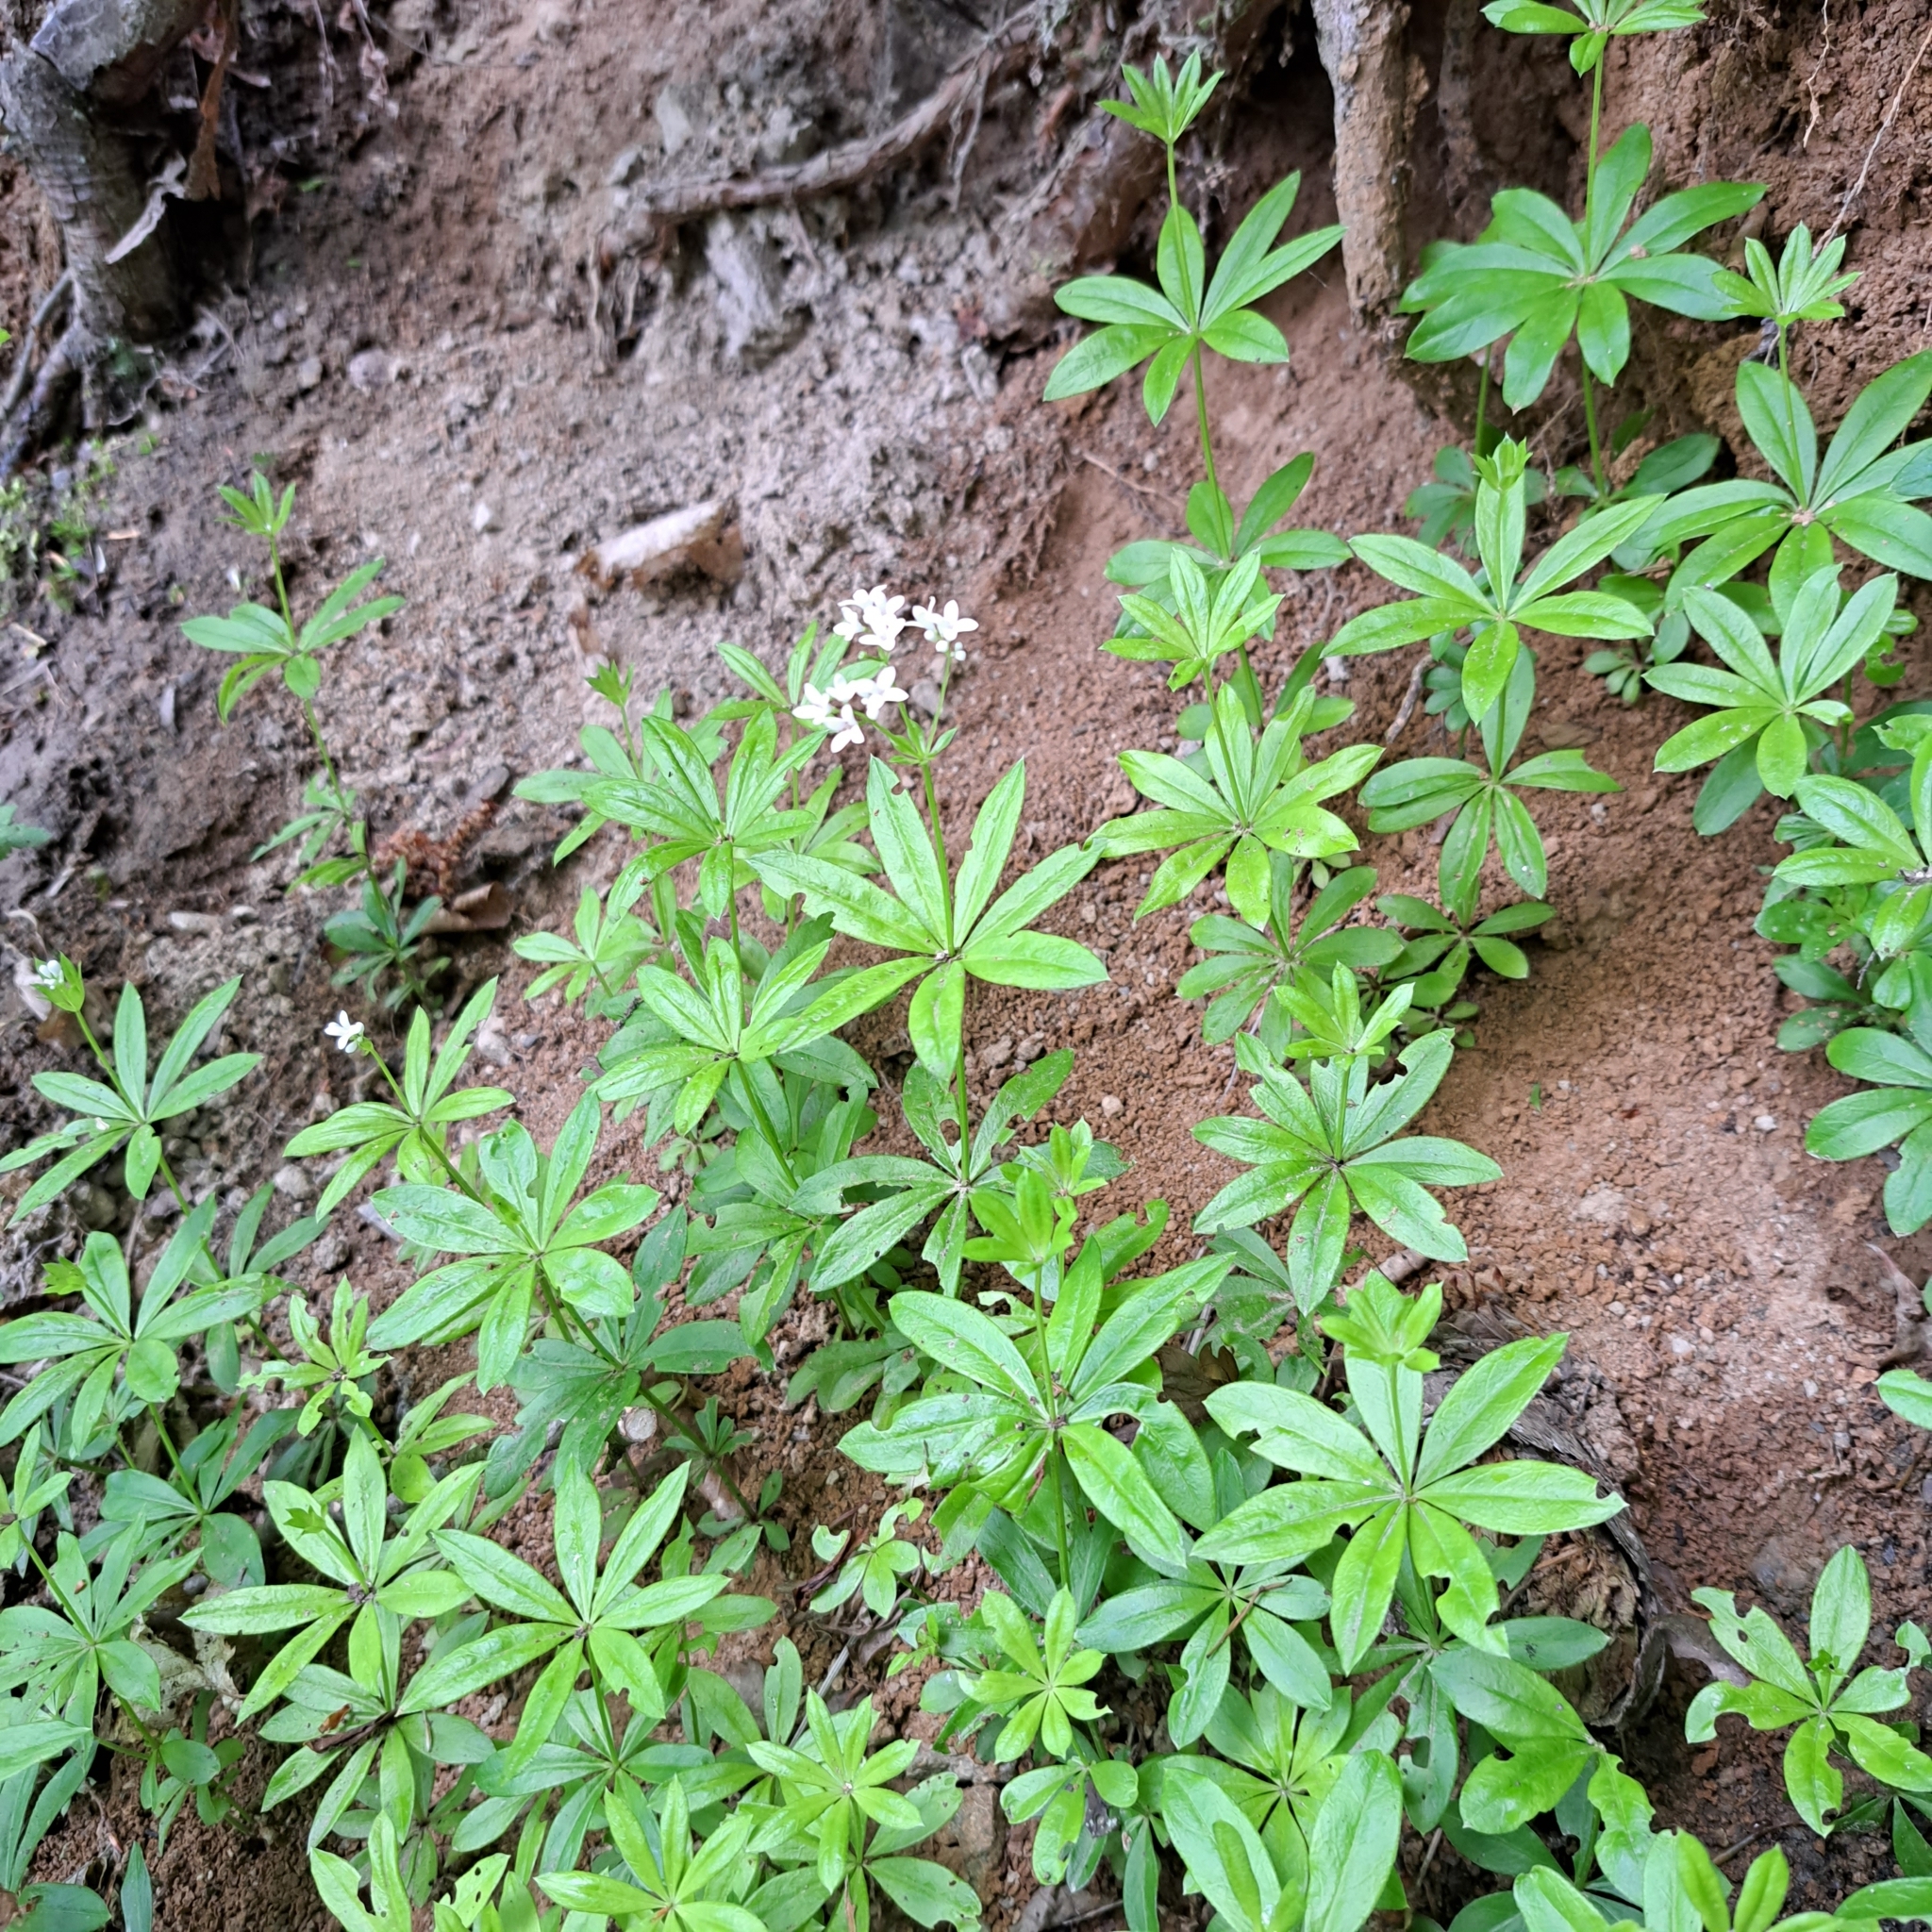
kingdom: Plantae
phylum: Tracheophyta
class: Magnoliopsida
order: Gentianales
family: Rubiaceae
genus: Galium
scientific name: Galium odoratum
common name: Sweet woodruff
